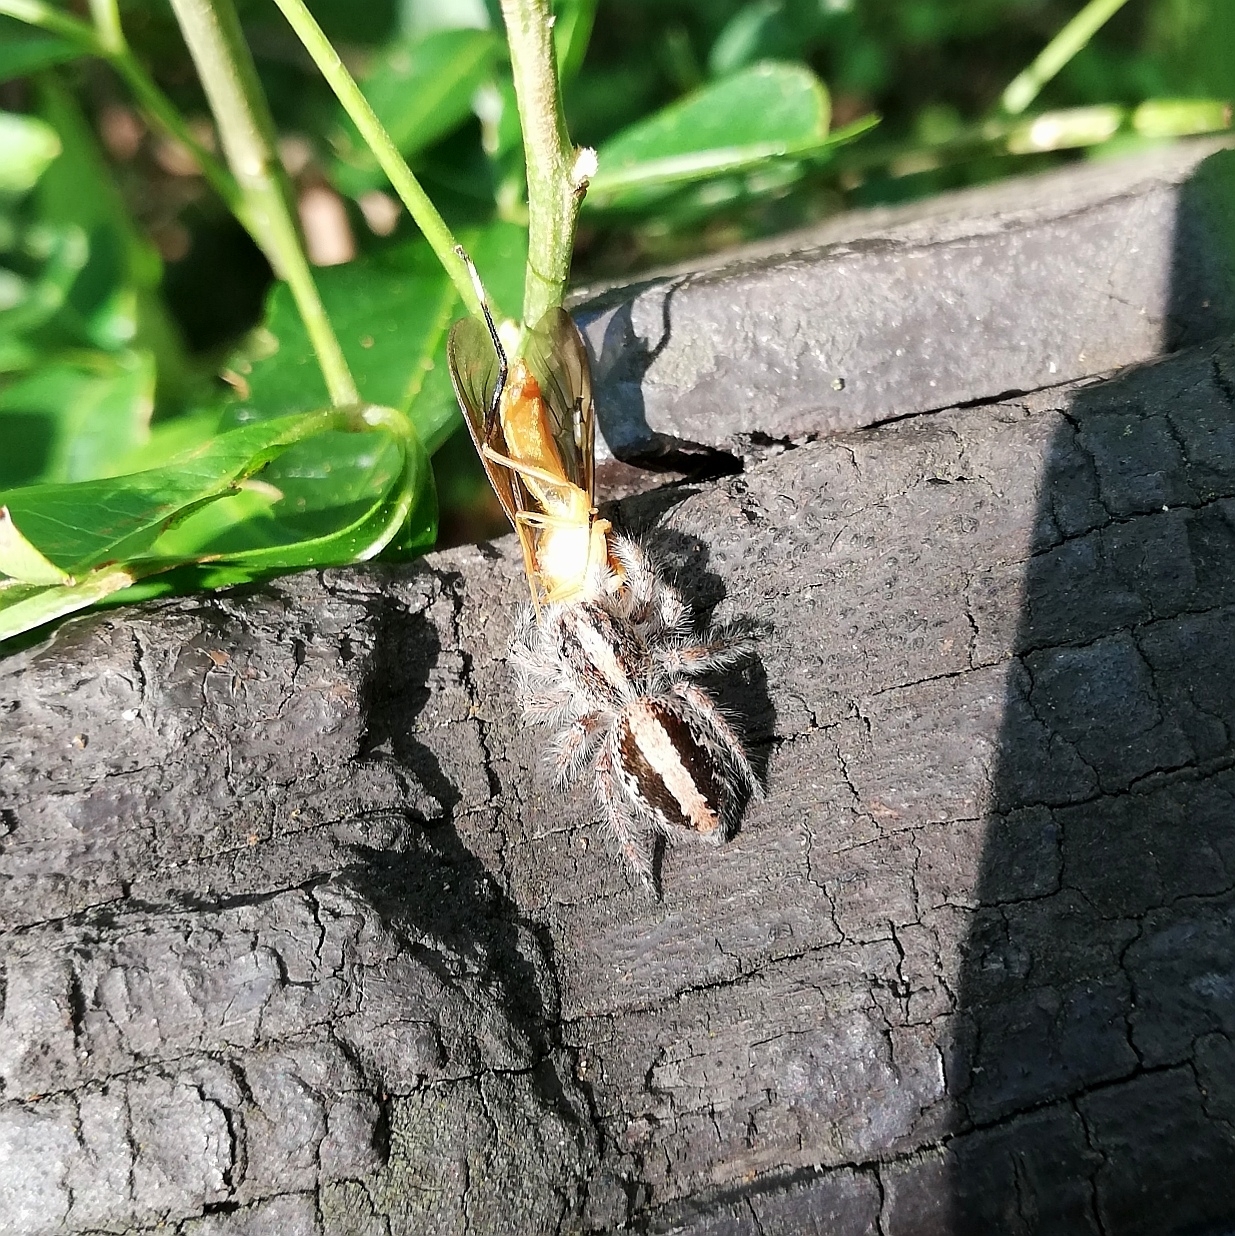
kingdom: Animalia
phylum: Arthropoda
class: Arachnida
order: Araneae
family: Salticidae
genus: Megafreya
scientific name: Megafreya sutrix
